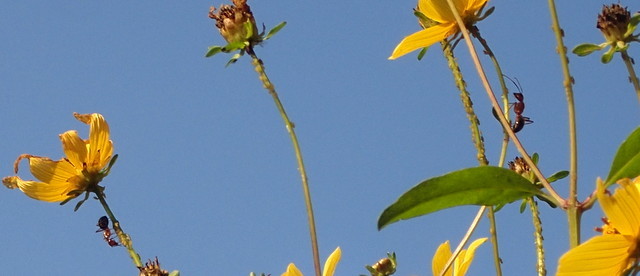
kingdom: Animalia
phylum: Arthropoda
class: Insecta
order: Hymenoptera
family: Formicidae
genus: Camponotus
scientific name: Camponotus floridanus
